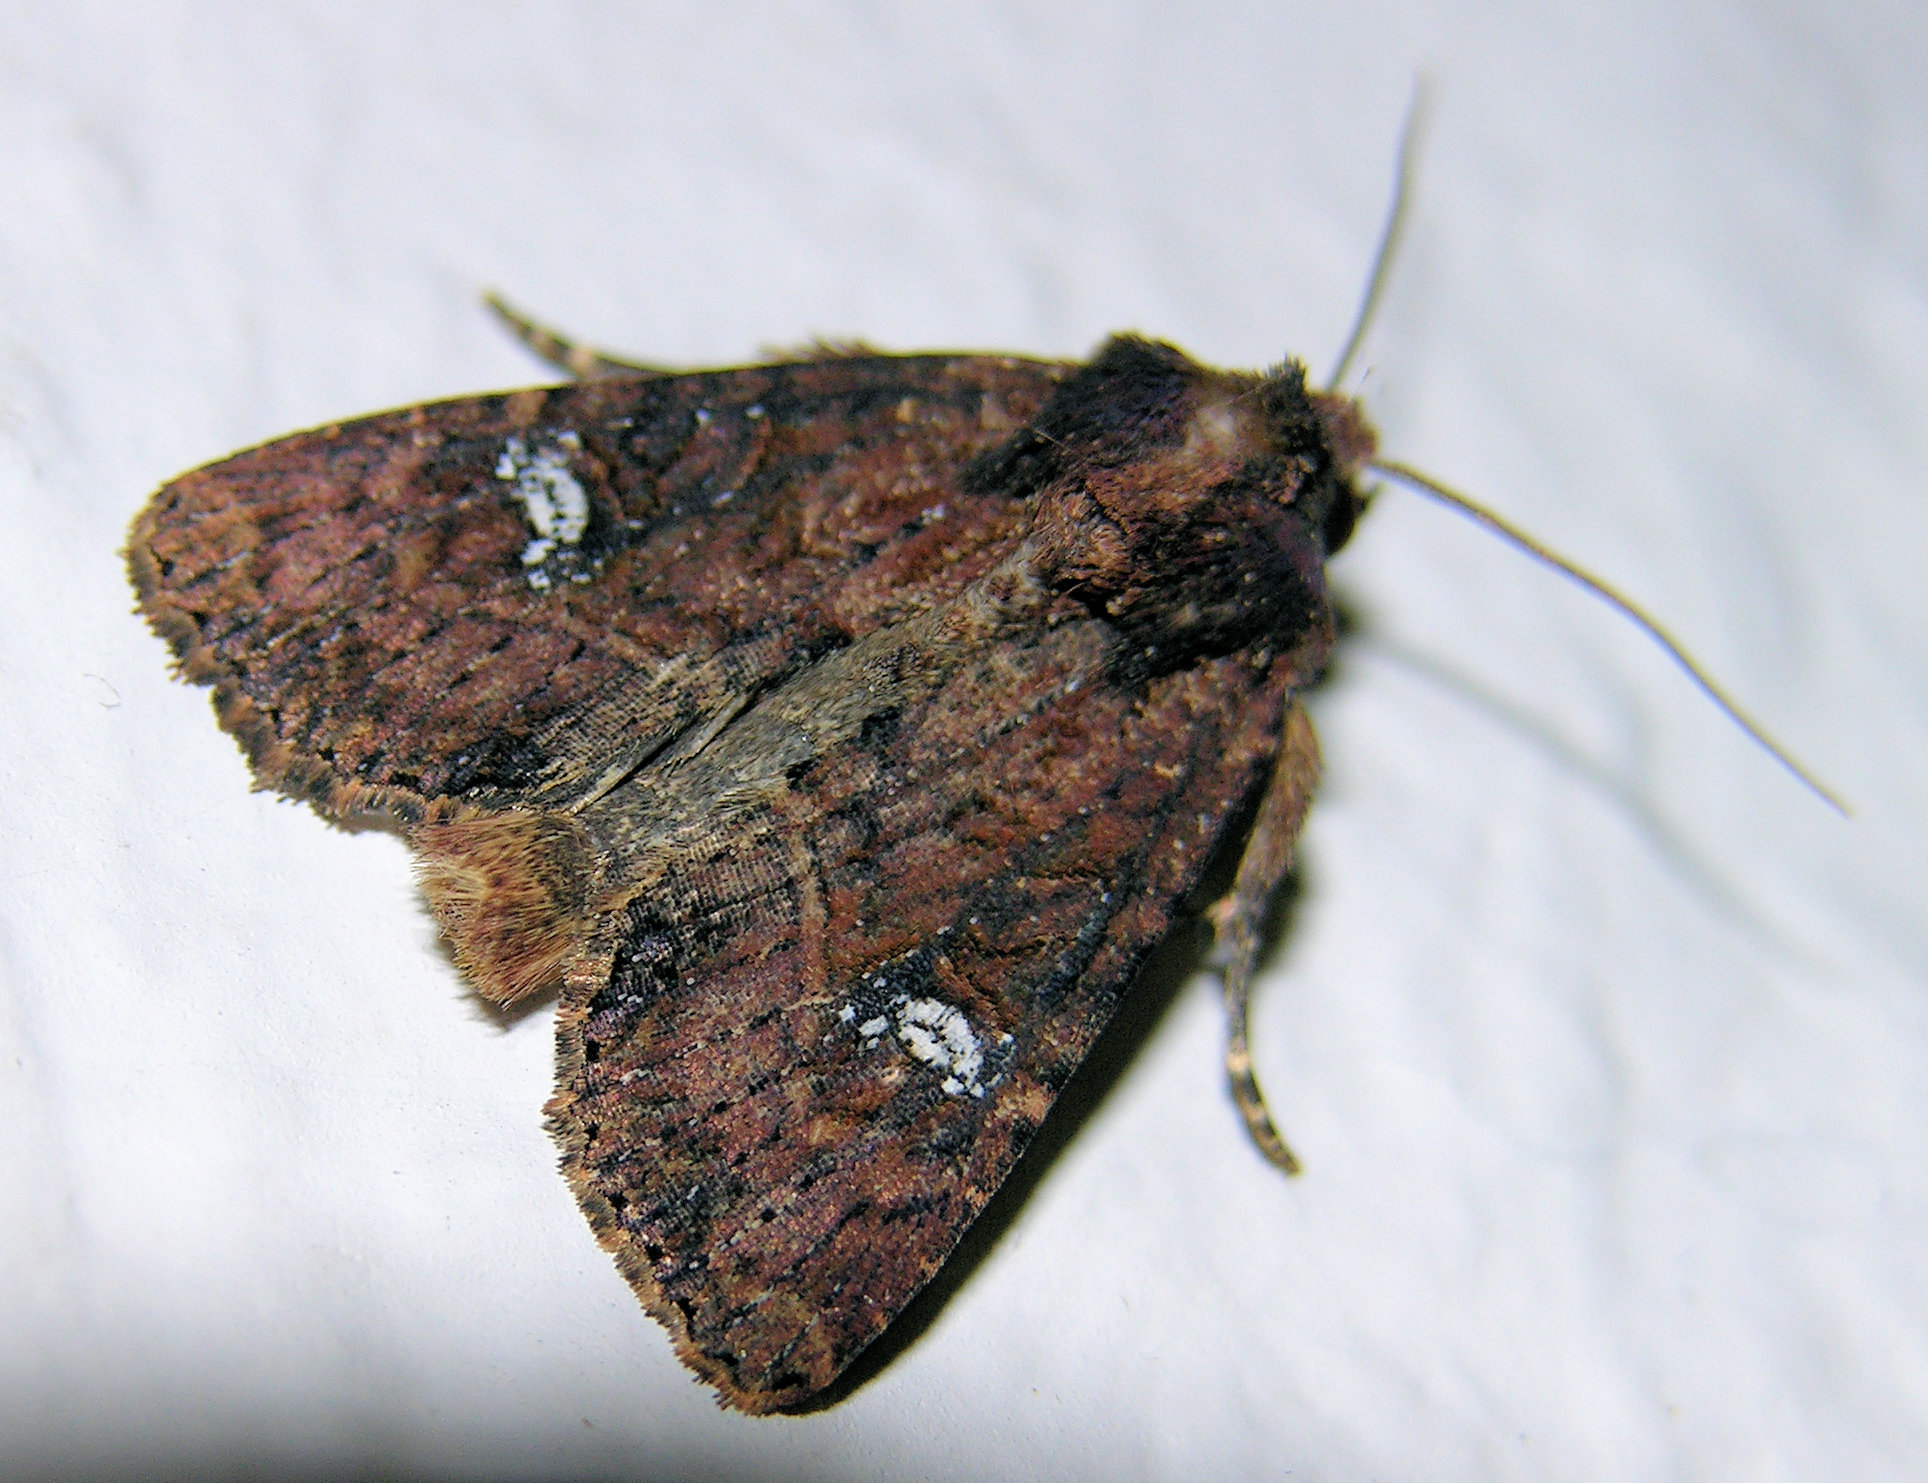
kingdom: Animalia
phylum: Arthropoda
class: Insecta
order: Lepidoptera
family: Noctuidae
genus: Mesapamea
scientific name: Mesapamea
